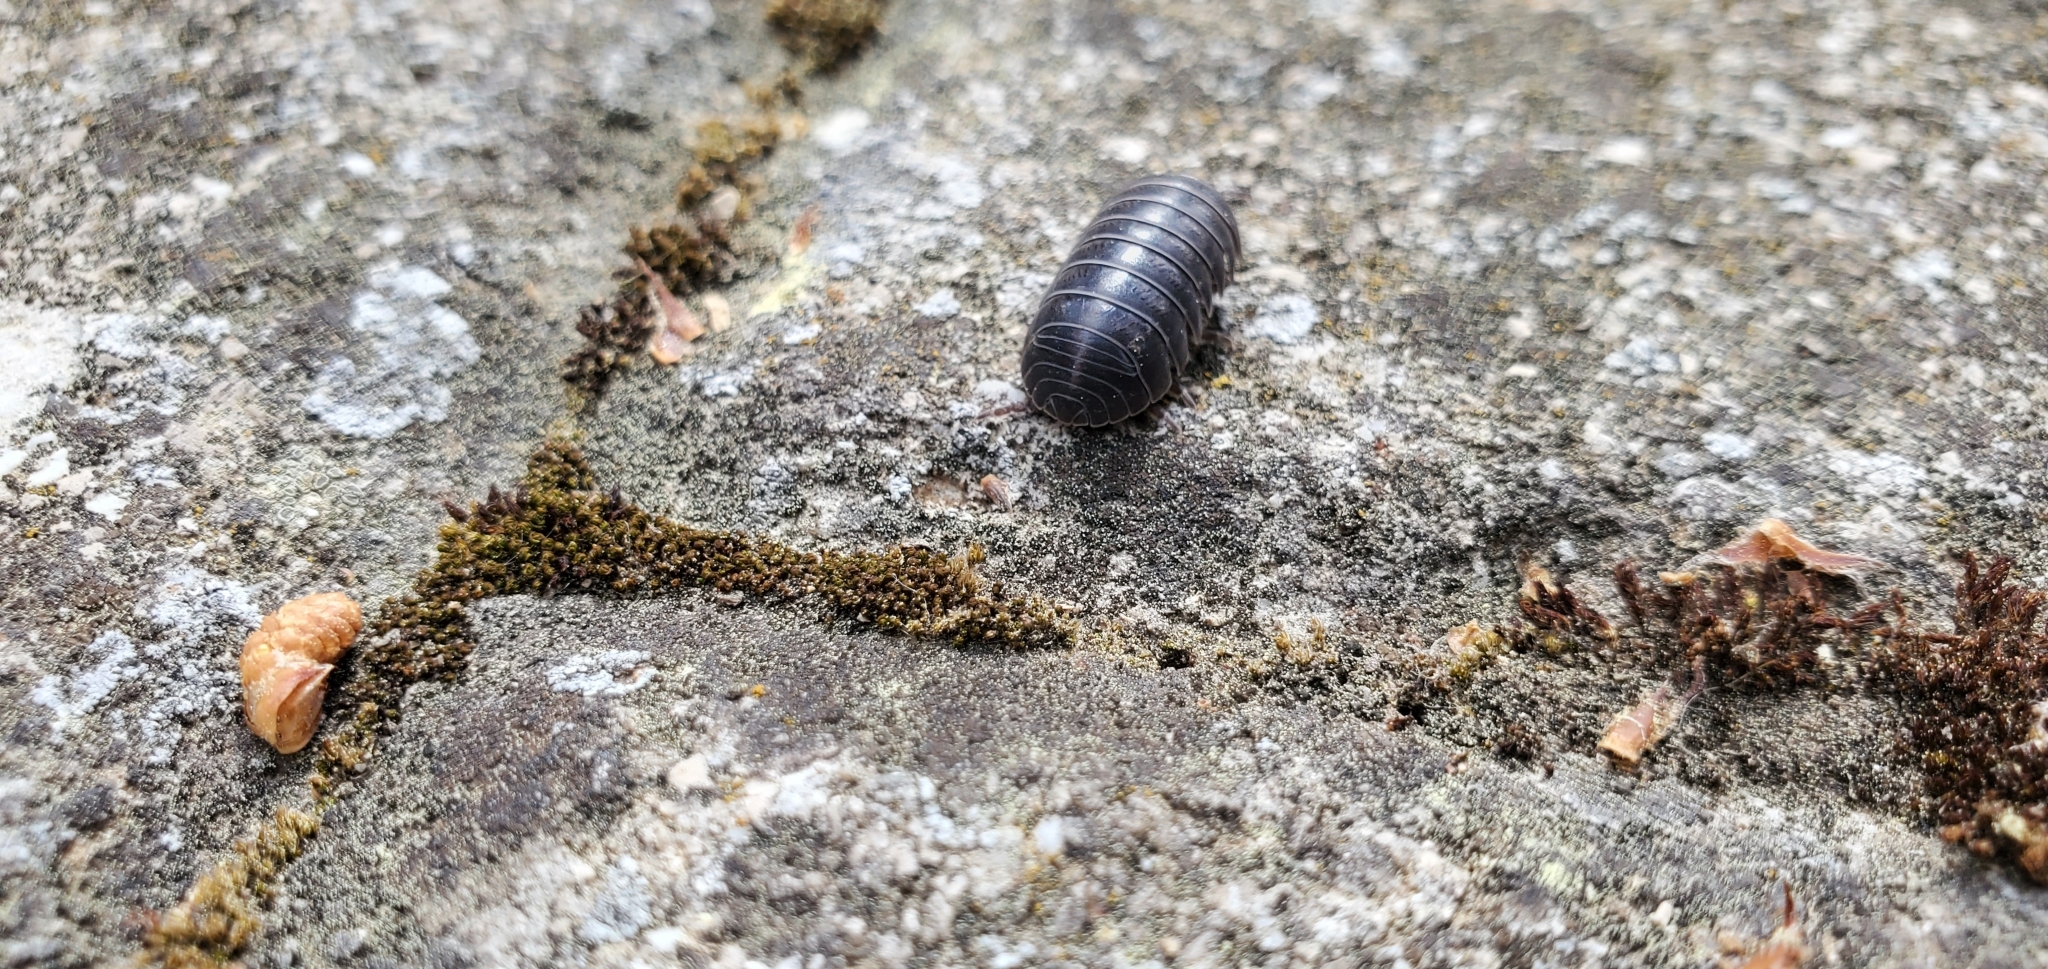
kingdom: Animalia
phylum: Arthropoda
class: Malacostraca
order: Isopoda
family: Armadillidiidae
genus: Armadillidium
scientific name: Armadillidium vulgare
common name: Common pill woodlouse
